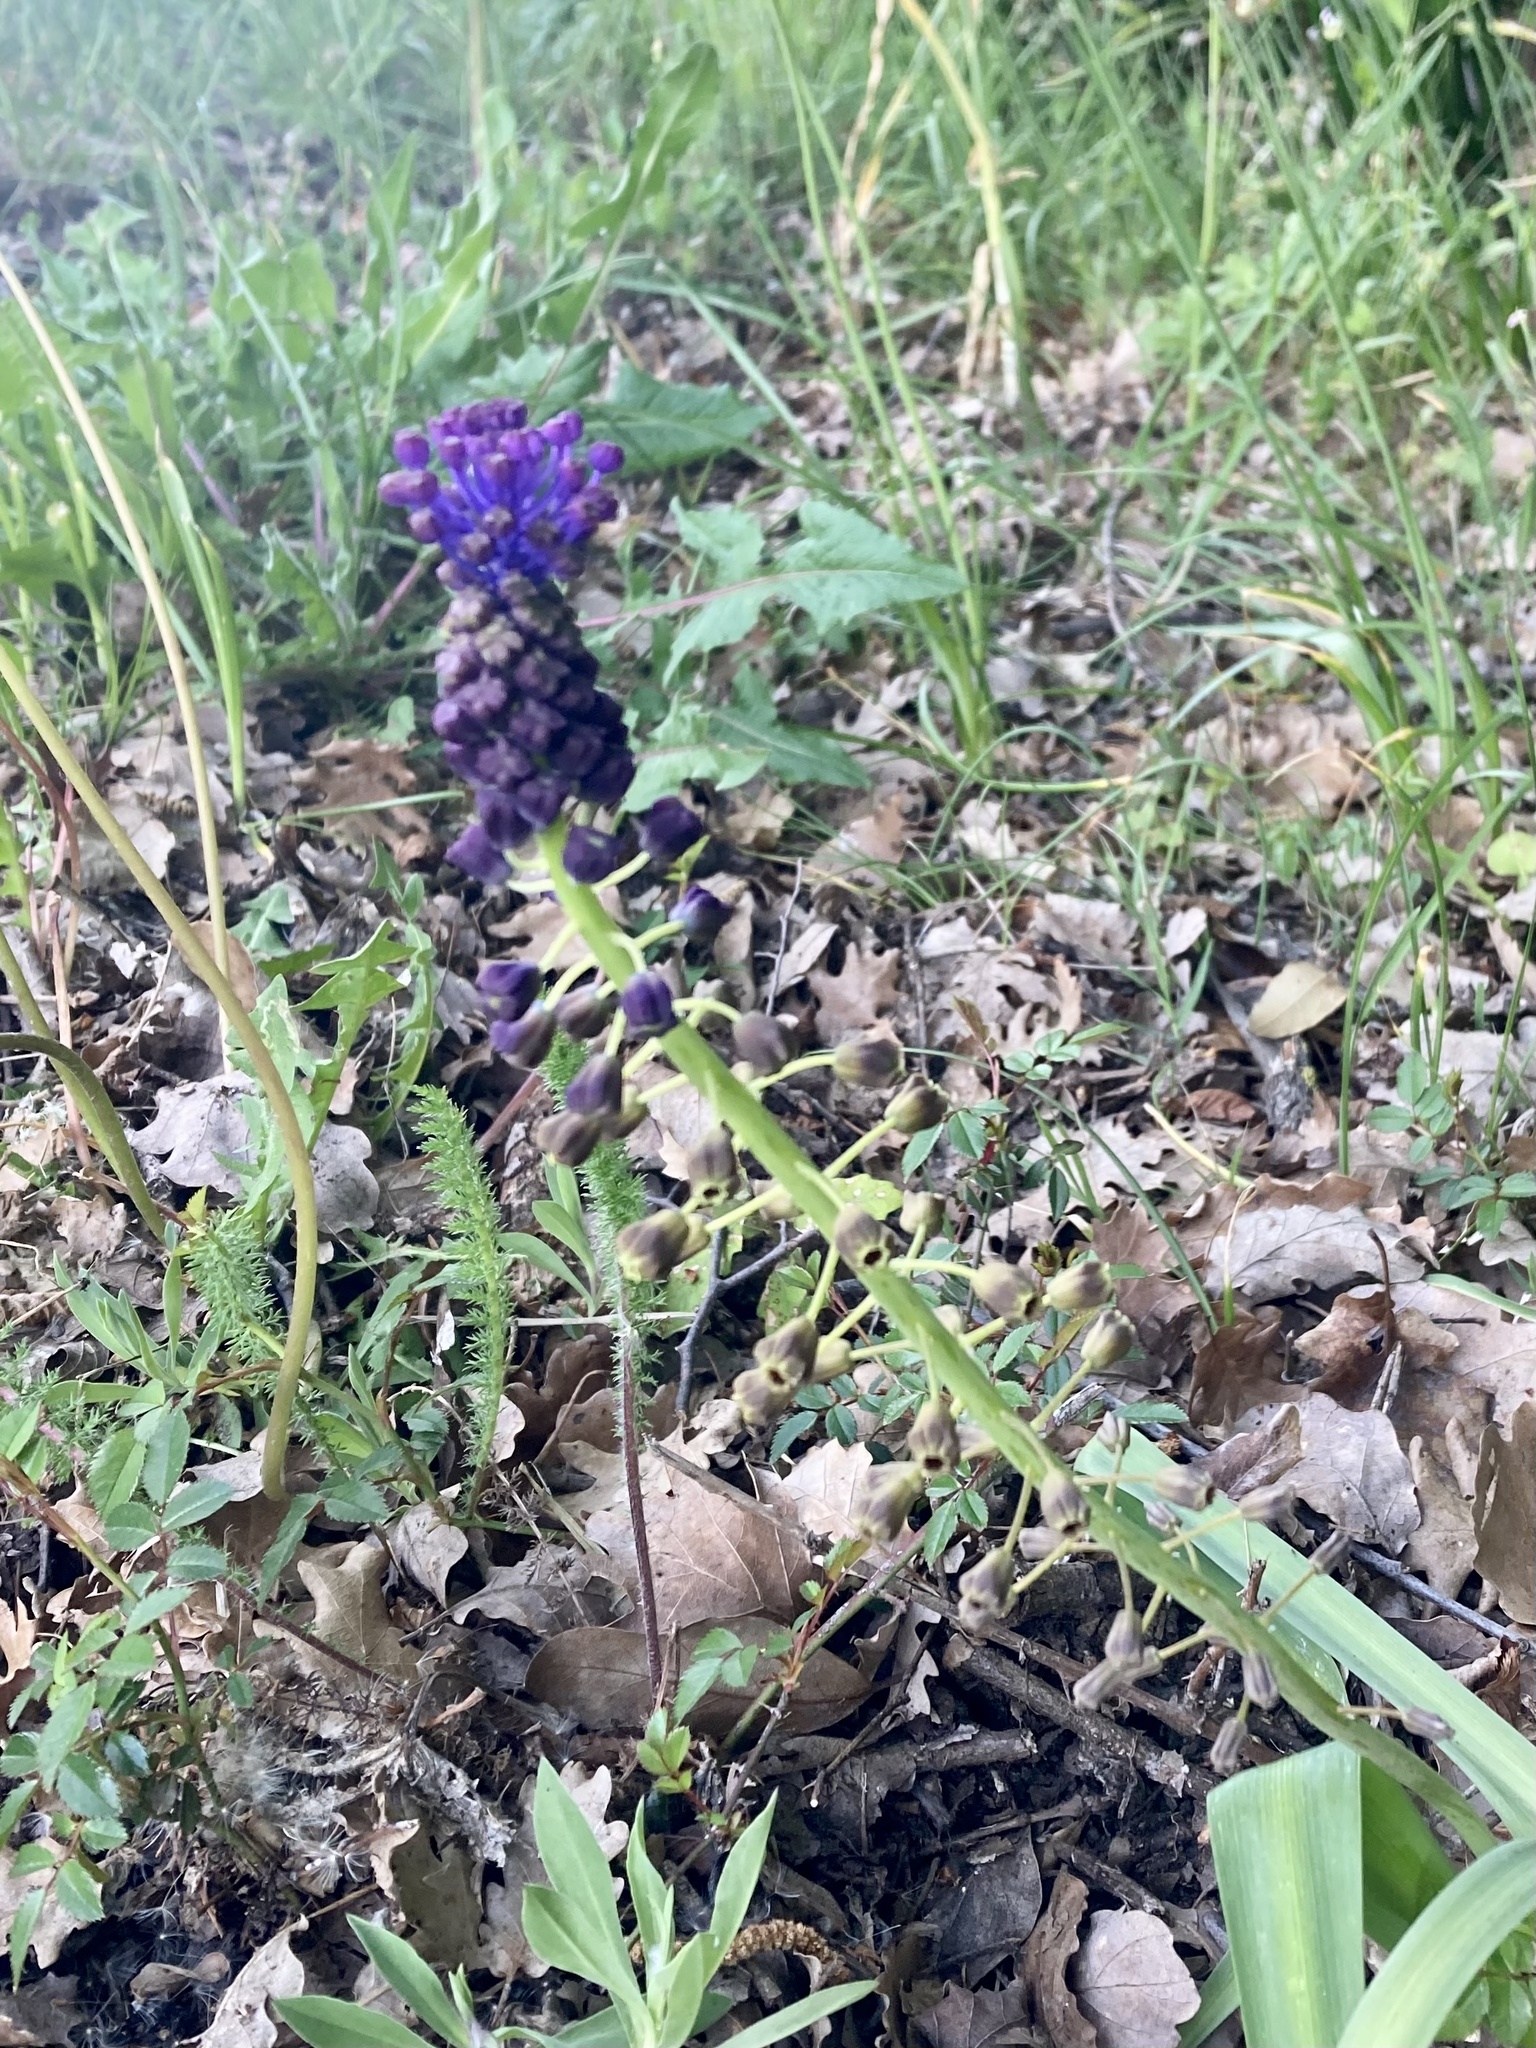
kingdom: Plantae
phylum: Tracheophyta
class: Liliopsida
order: Asparagales
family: Asparagaceae
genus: Muscari
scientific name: Muscari comosum
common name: Tassel hyacinth
